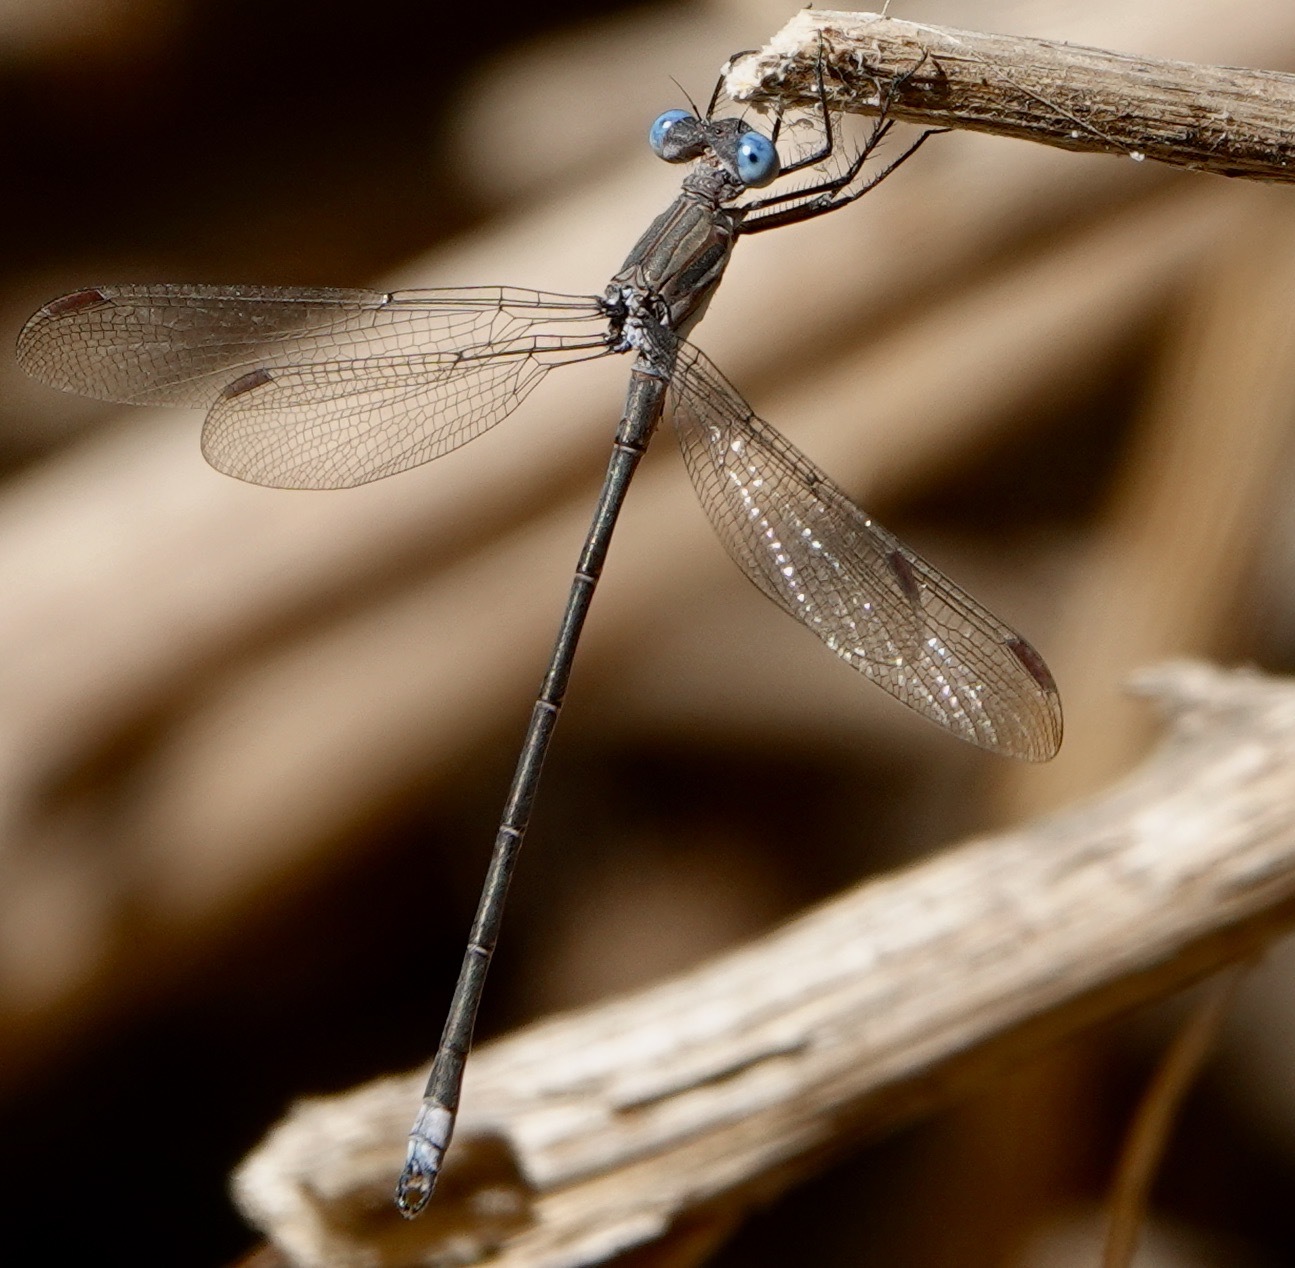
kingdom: Animalia
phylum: Arthropoda
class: Insecta
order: Odonata
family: Lestidae
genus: Archilestes
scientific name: Archilestes californicus
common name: California spreadwing
